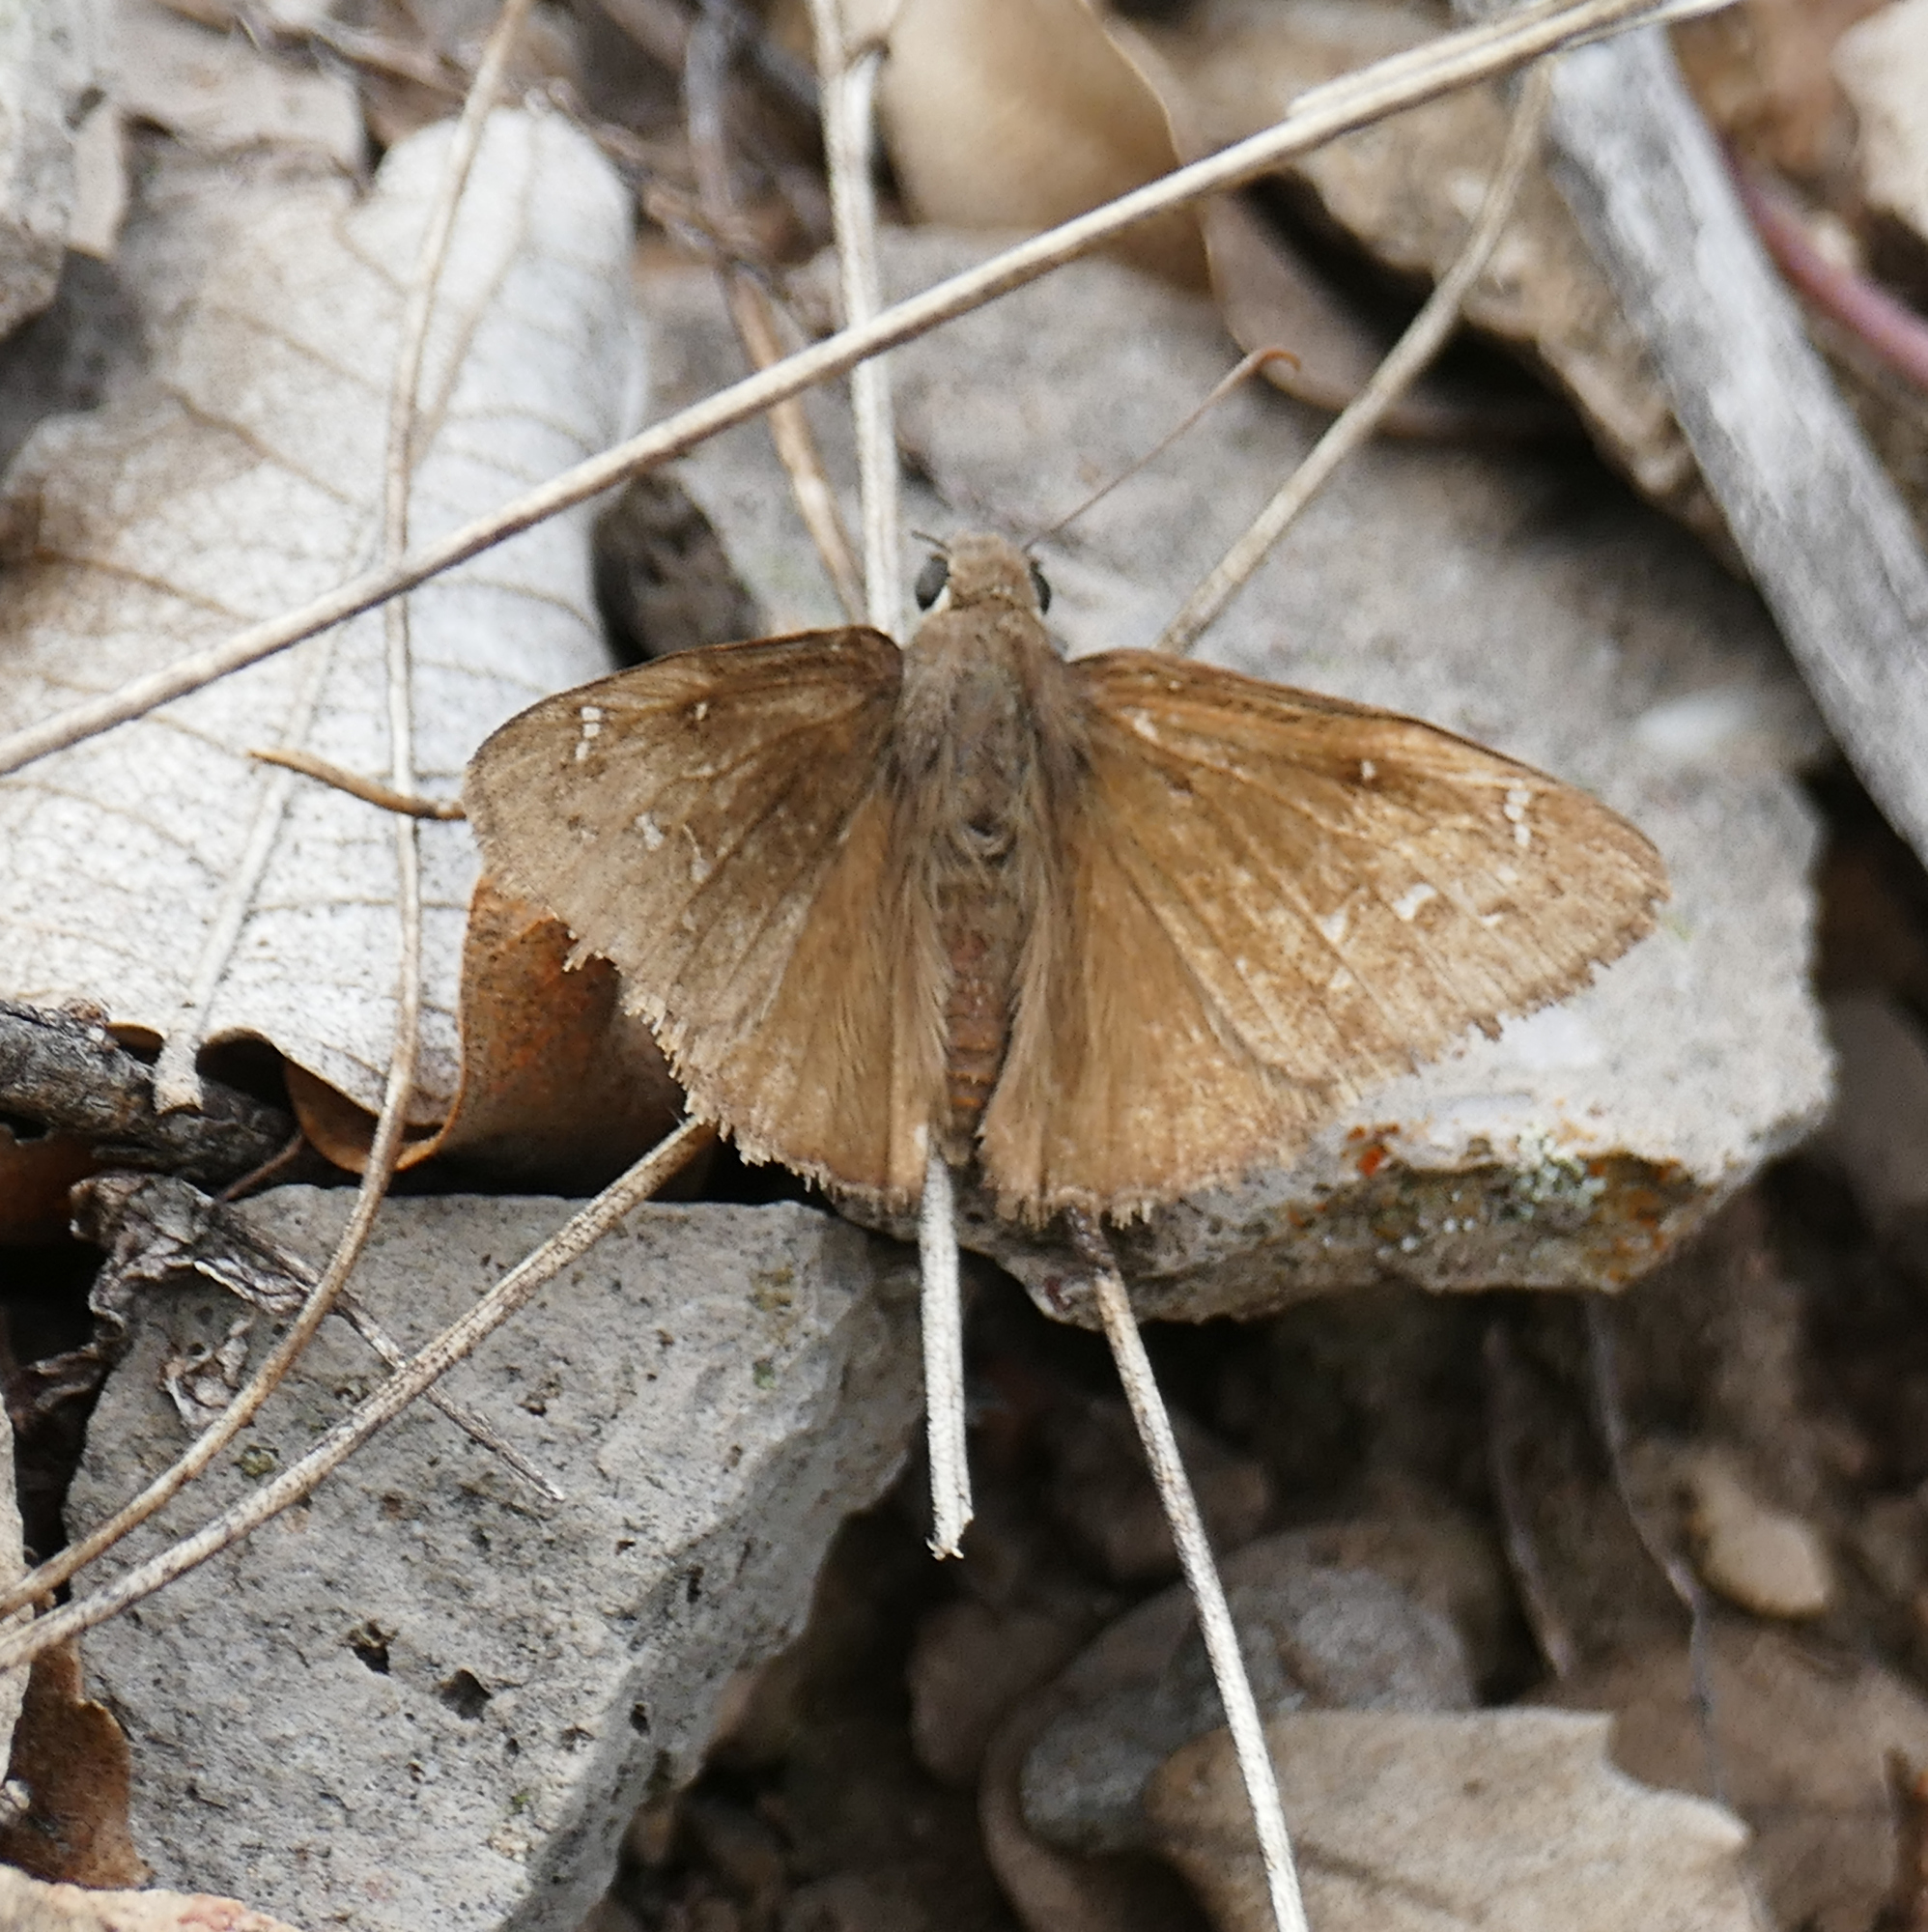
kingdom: Animalia
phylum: Arthropoda
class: Insecta
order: Lepidoptera
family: Hesperiidae
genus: Thorybes
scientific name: Thorybes pylades
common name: Northern cloudywing
